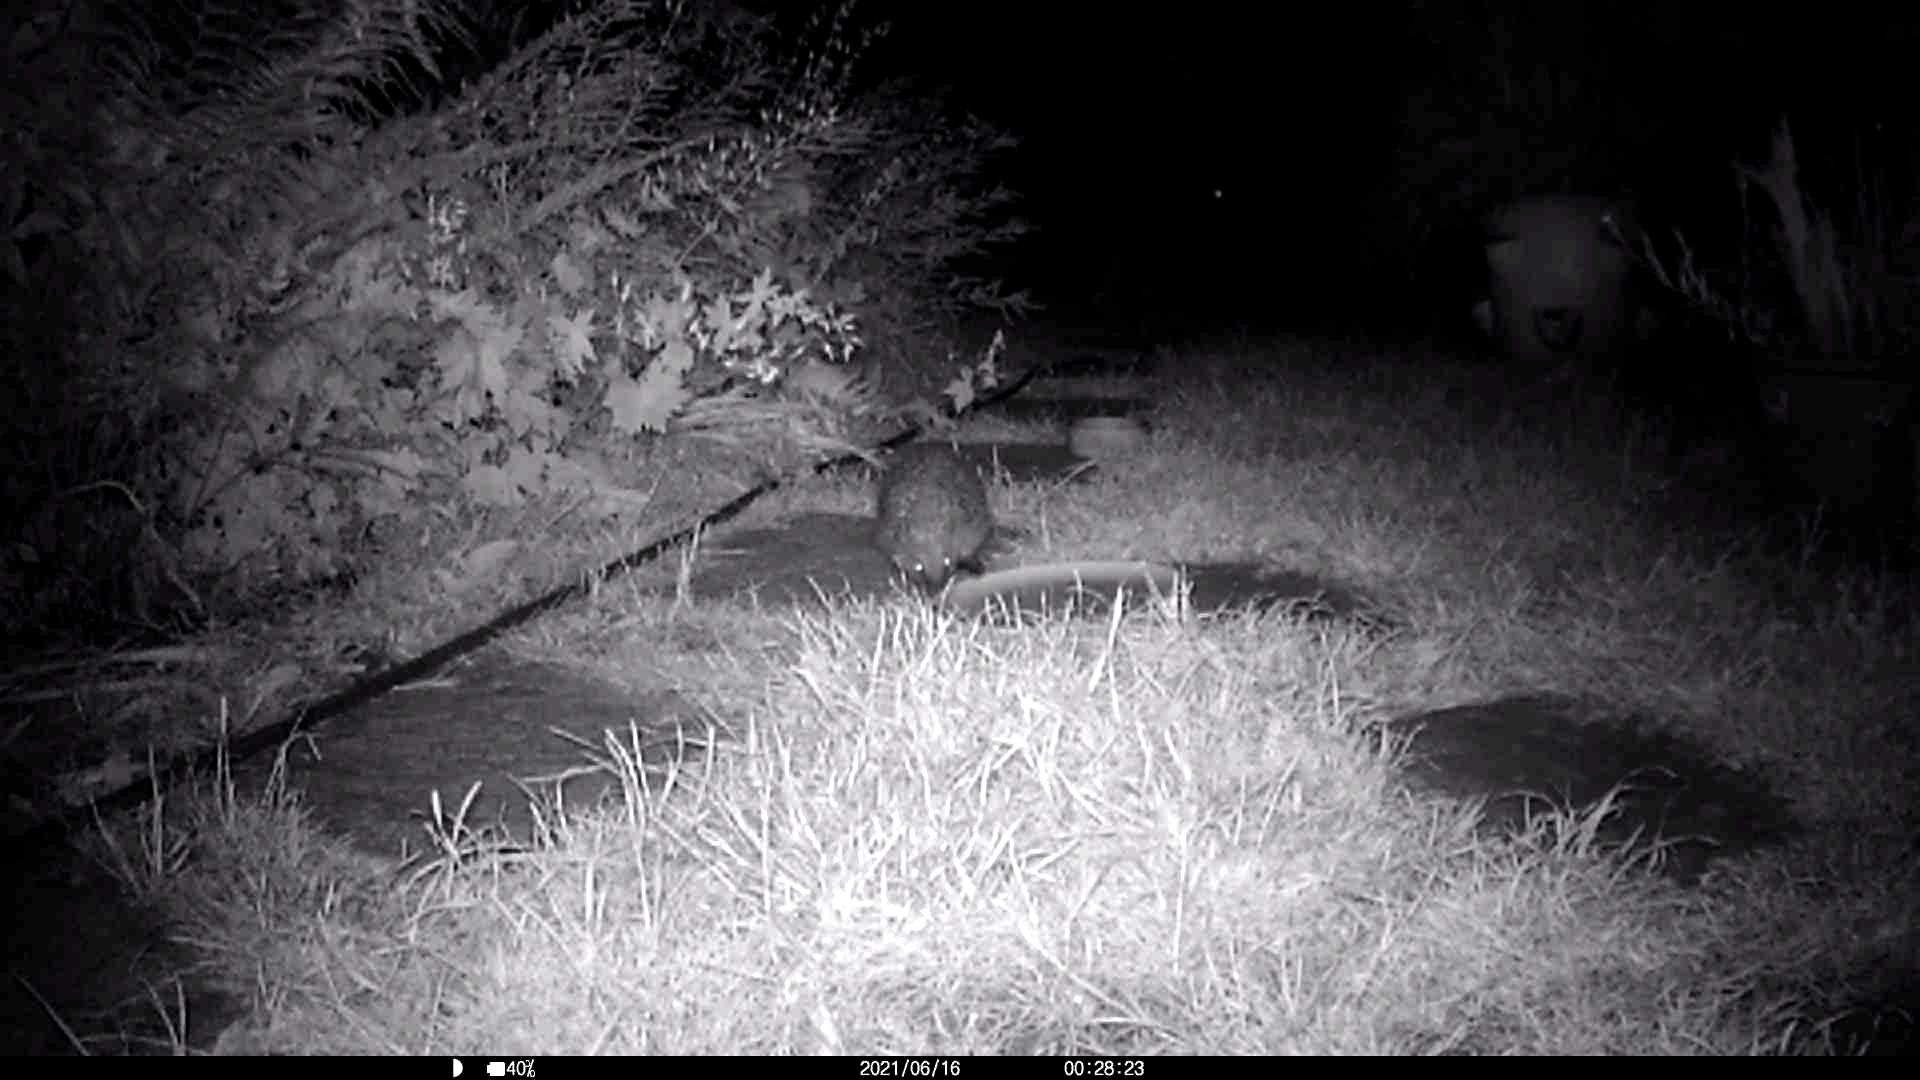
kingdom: Animalia
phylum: Chordata
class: Mammalia
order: Erinaceomorpha
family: Erinaceidae
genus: Erinaceus
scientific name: Erinaceus europaeus
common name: West european hedgehog
